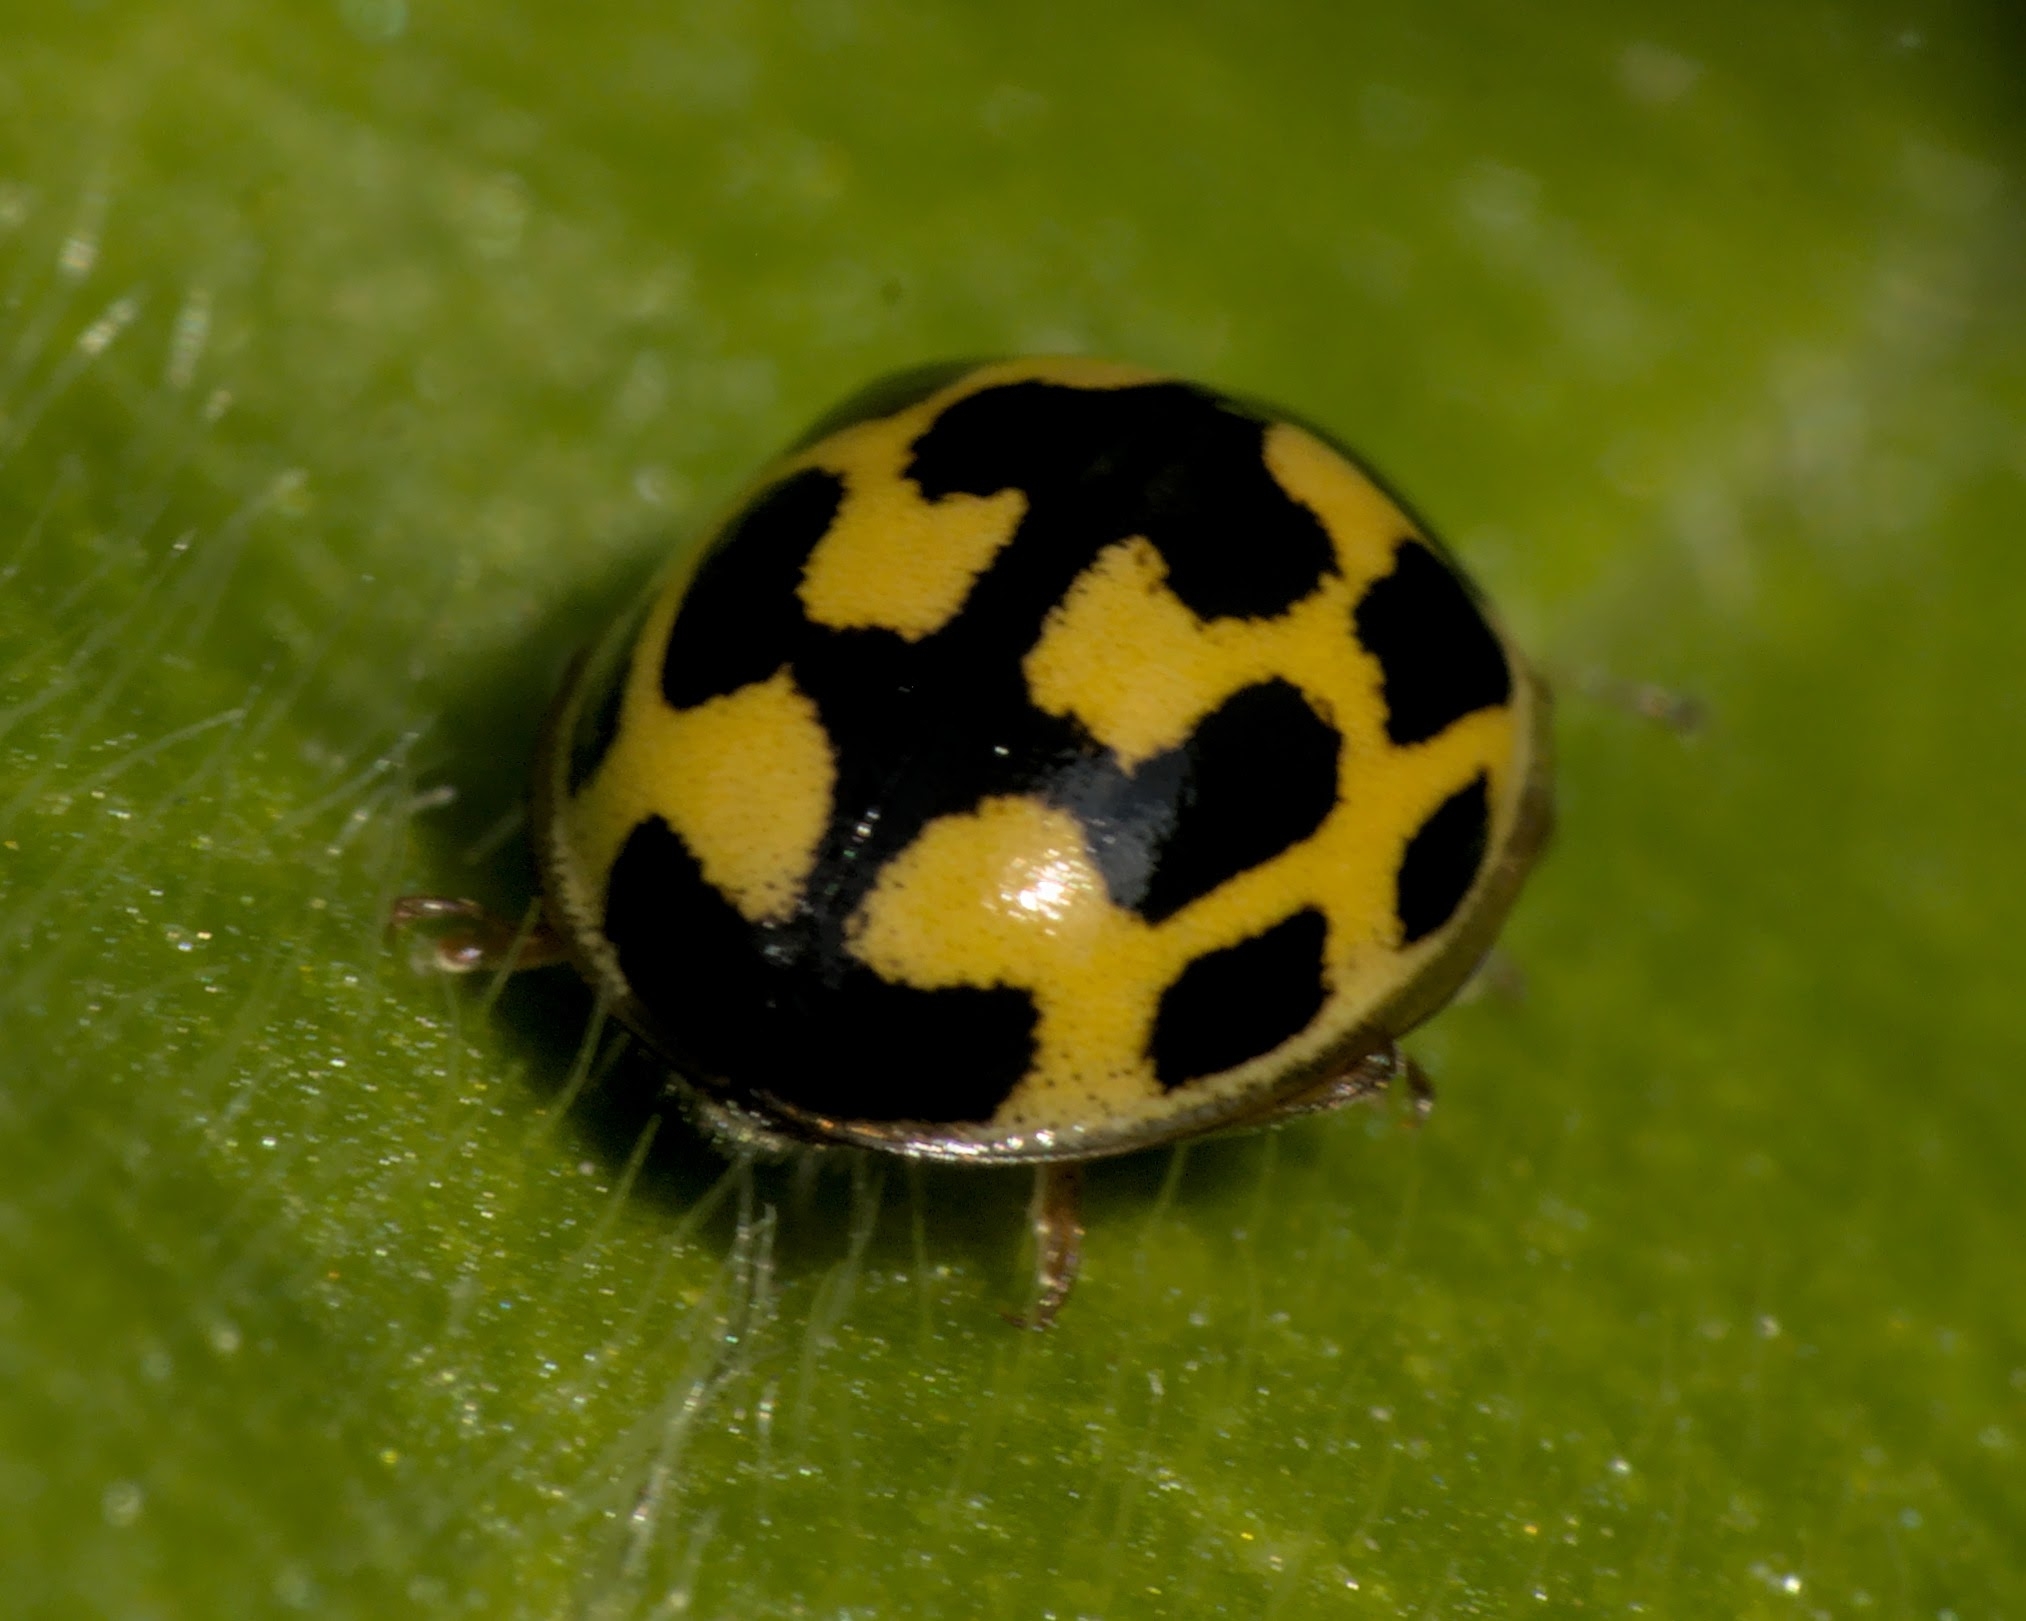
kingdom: Animalia
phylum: Arthropoda
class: Insecta
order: Coleoptera
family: Coccinellidae
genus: Propylaea
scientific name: Propylaea quatuordecimpunctata
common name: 14-spotted ladybird beetle
